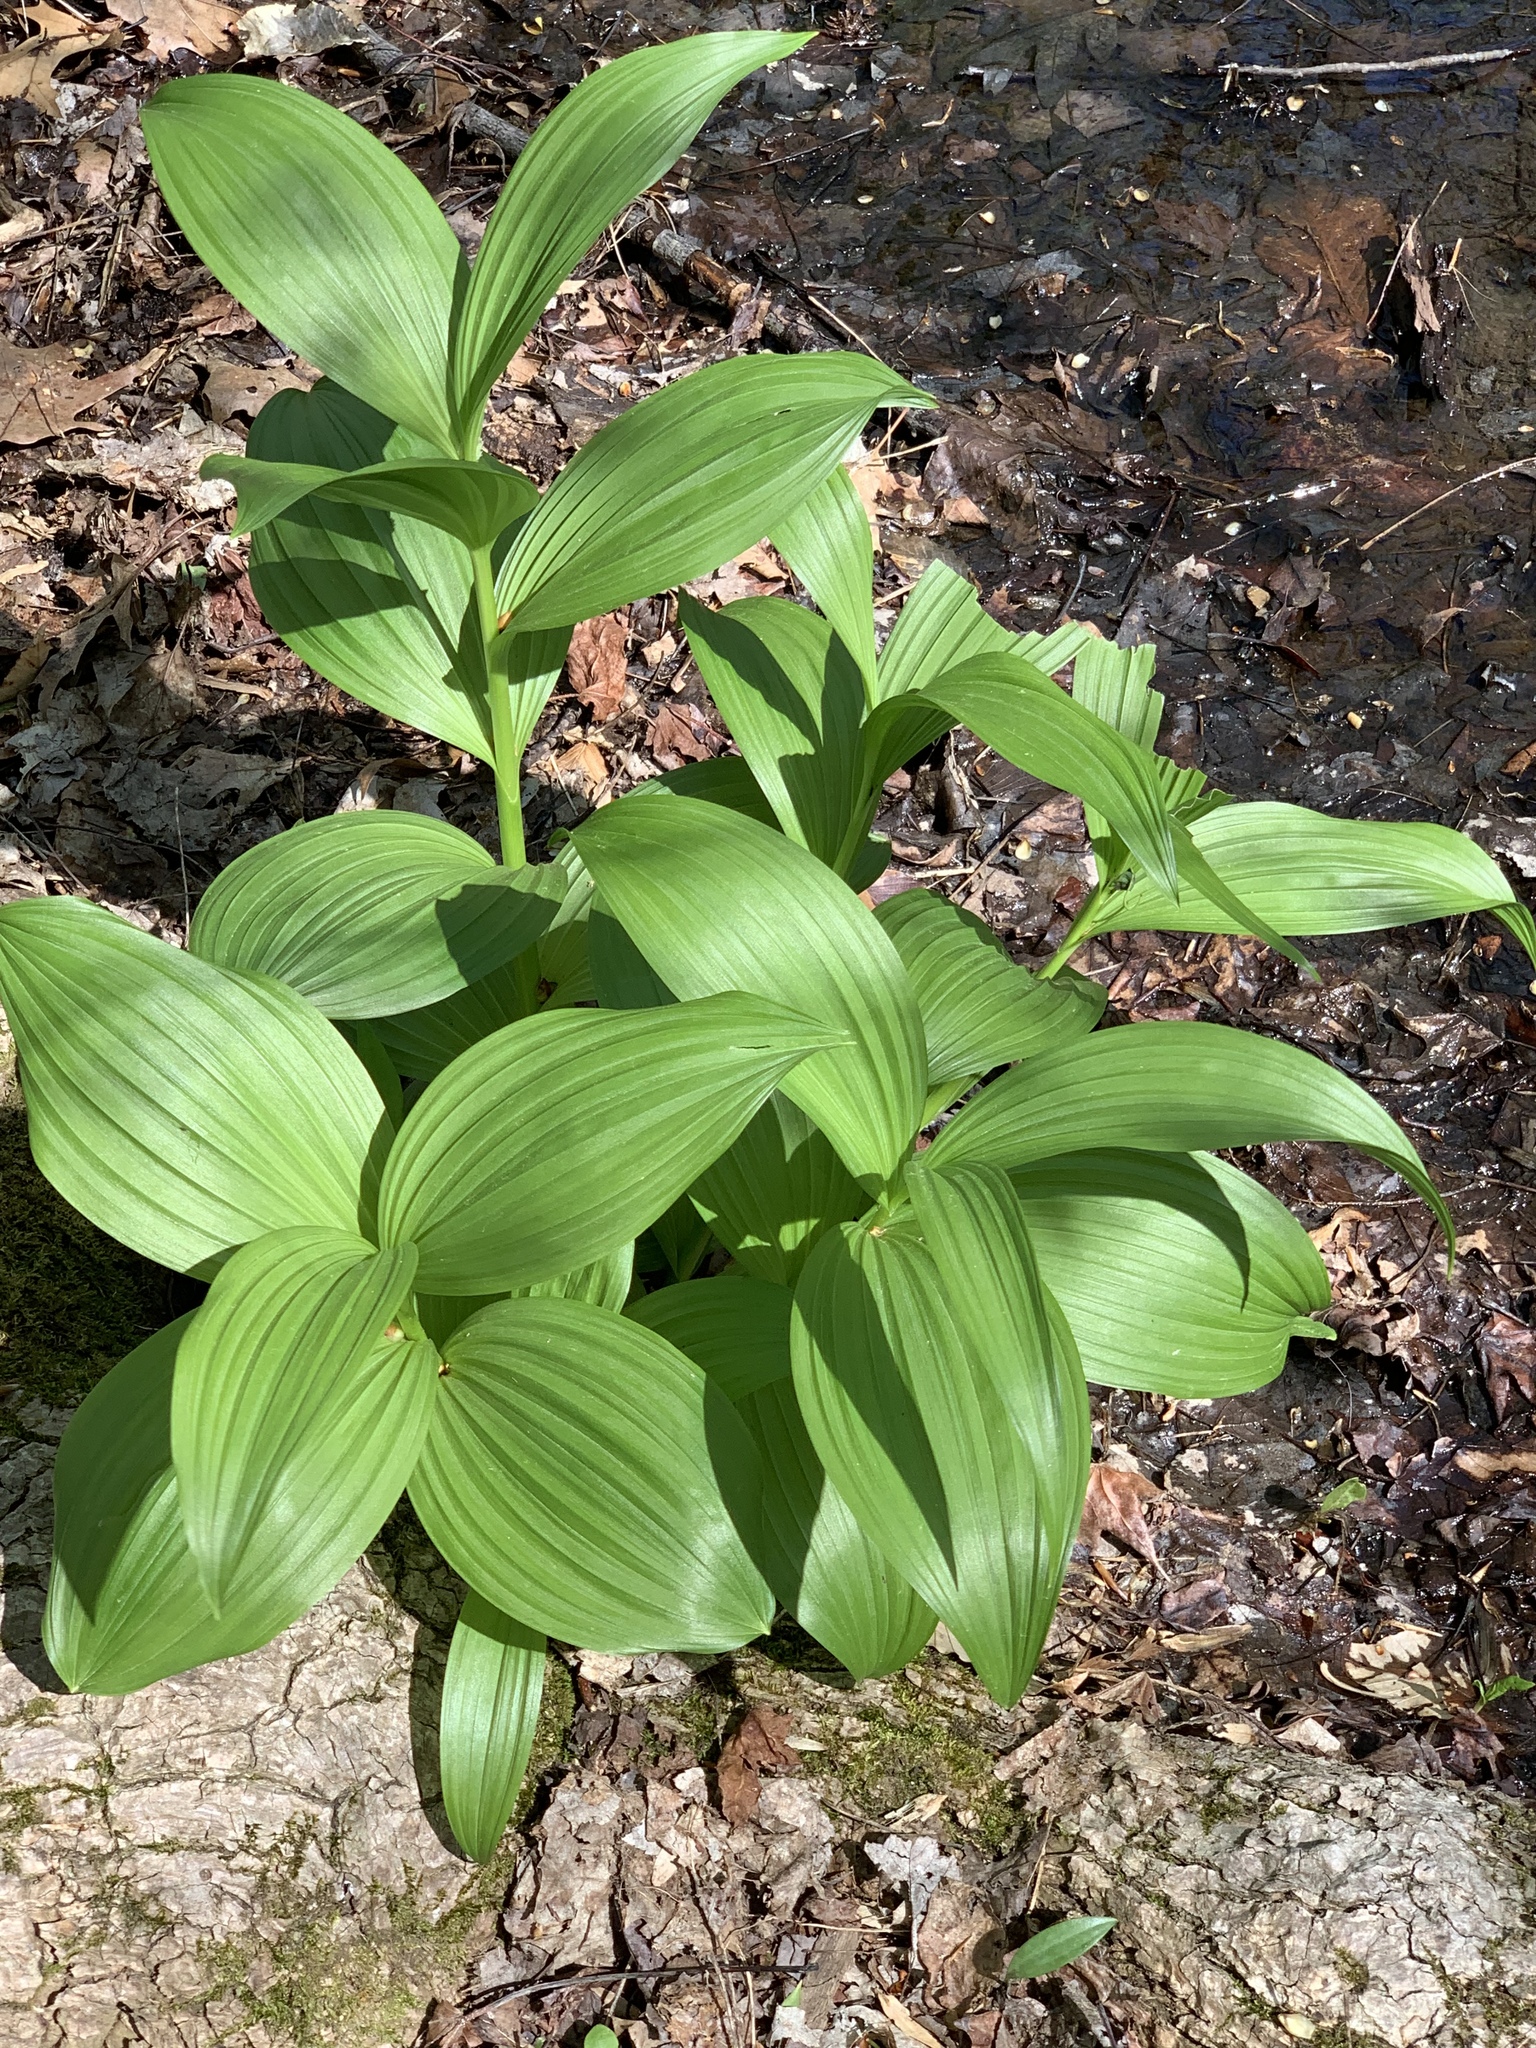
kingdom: Plantae
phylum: Tracheophyta
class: Liliopsida
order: Liliales
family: Melanthiaceae
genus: Veratrum
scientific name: Veratrum viride
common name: American false hellebore
